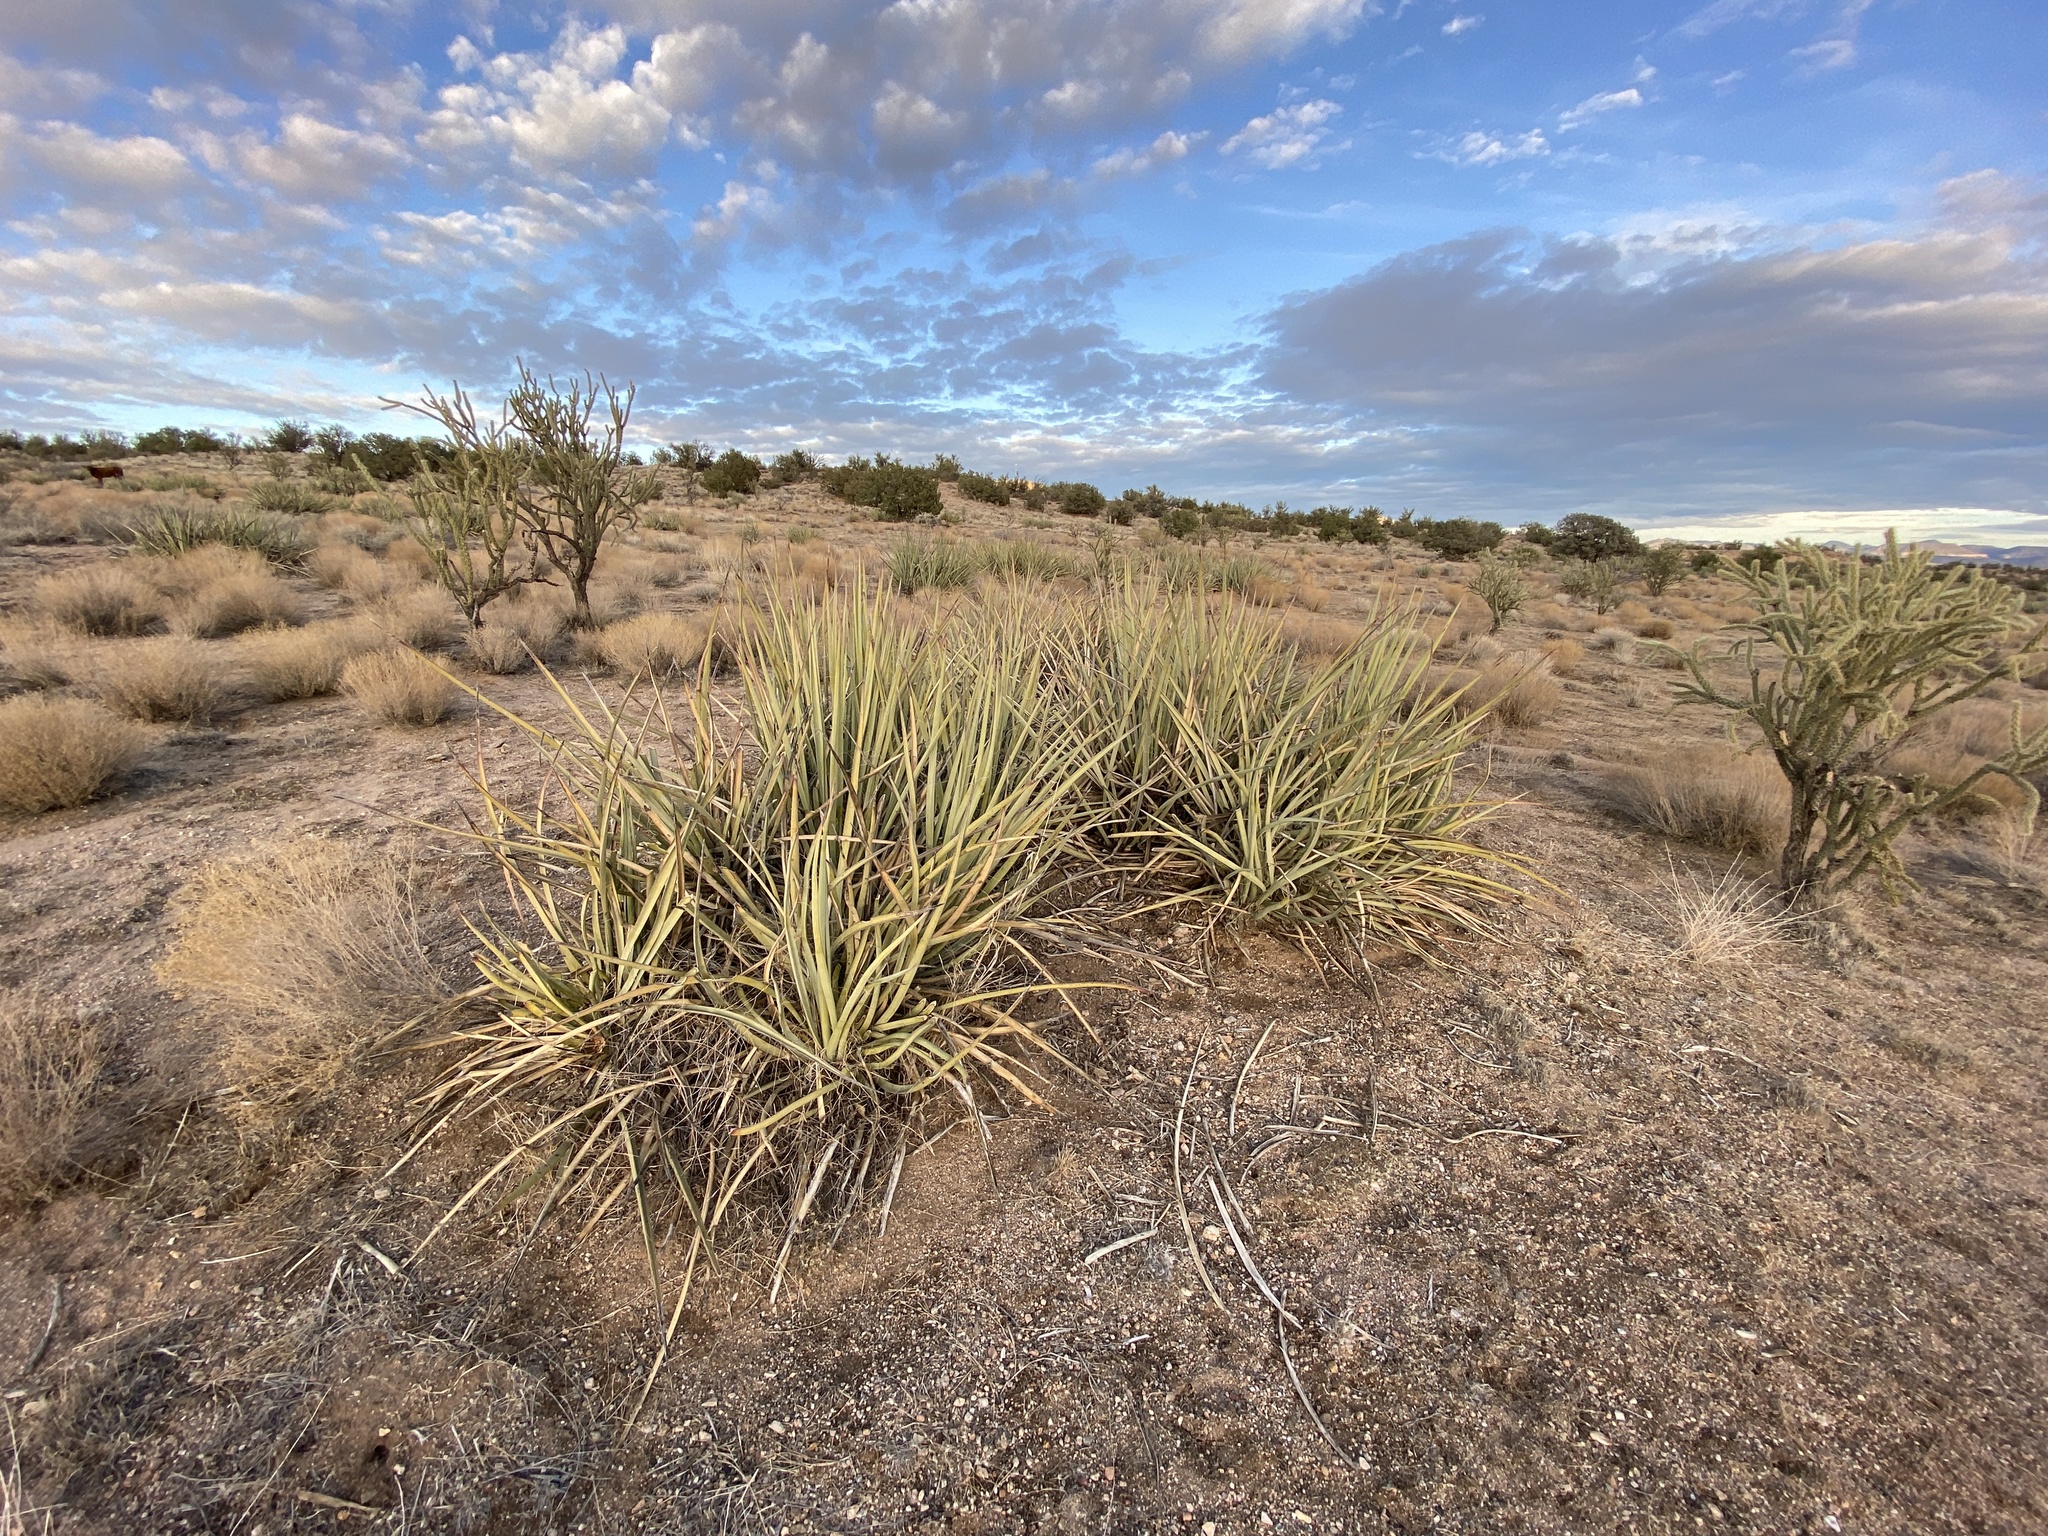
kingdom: Plantae
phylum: Tracheophyta
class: Liliopsida
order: Asparagales
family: Asparagaceae
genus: Yucca
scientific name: Yucca baccata
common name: Banana yucca
